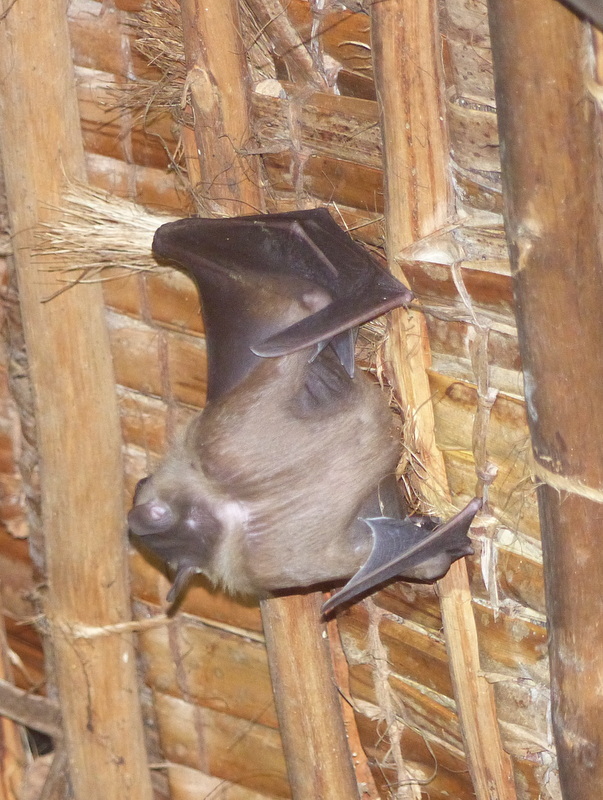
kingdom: Animalia
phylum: Chordata
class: Mammalia
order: Chiroptera
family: Pteropodidae
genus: Rousettus
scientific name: Rousettus aegyptiacus
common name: Egyptian rousette
